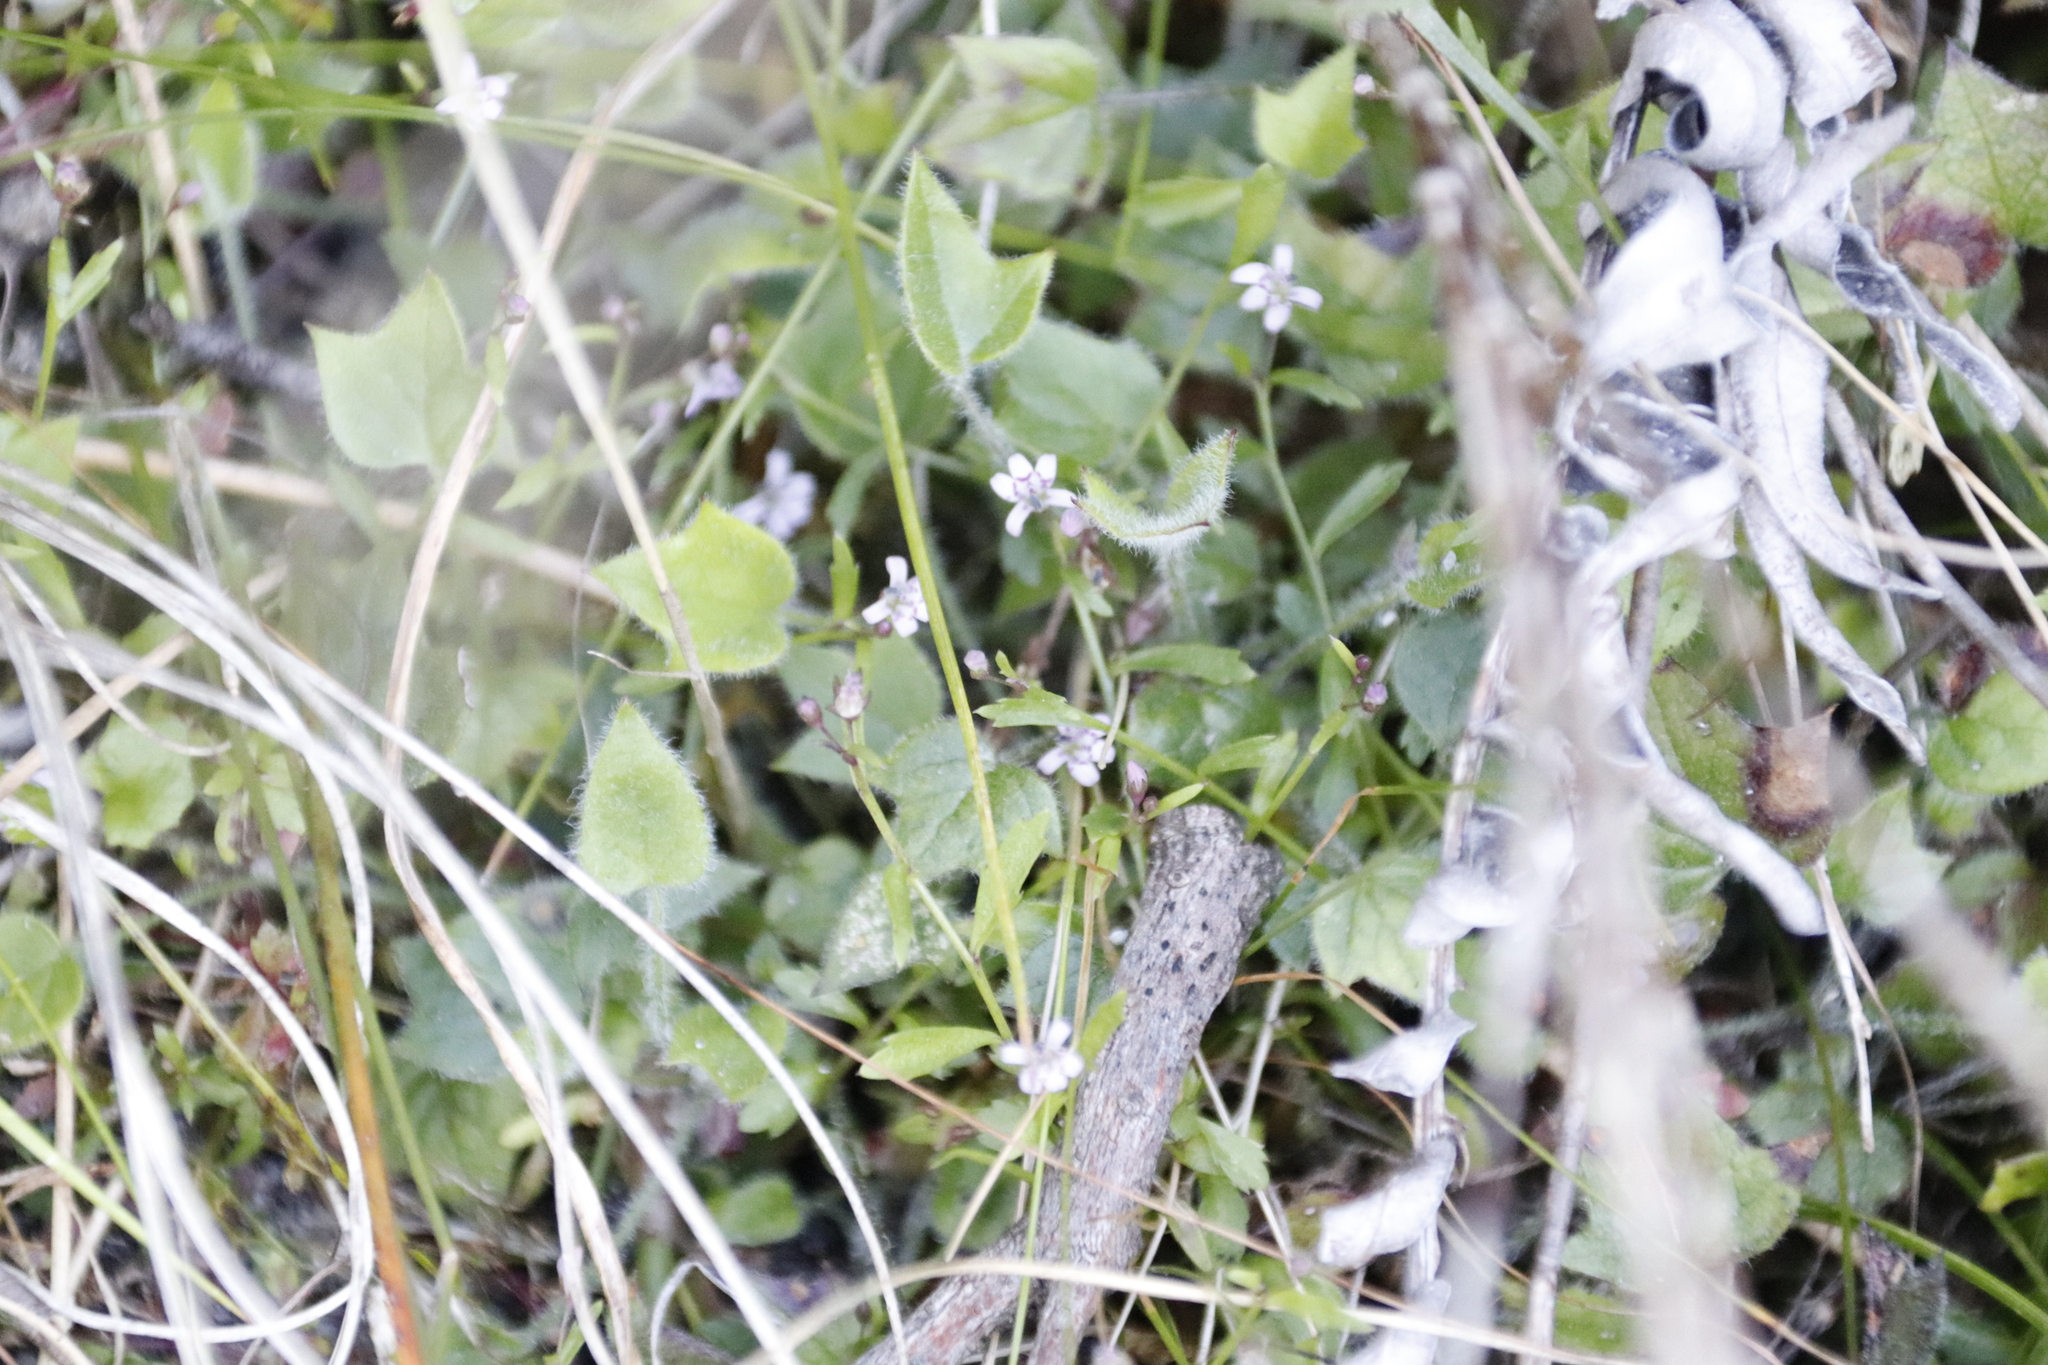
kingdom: Plantae
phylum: Tracheophyta
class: Magnoliopsida
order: Asterales
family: Campanulaceae
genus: Lobelia
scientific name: Lobelia eckloniana
